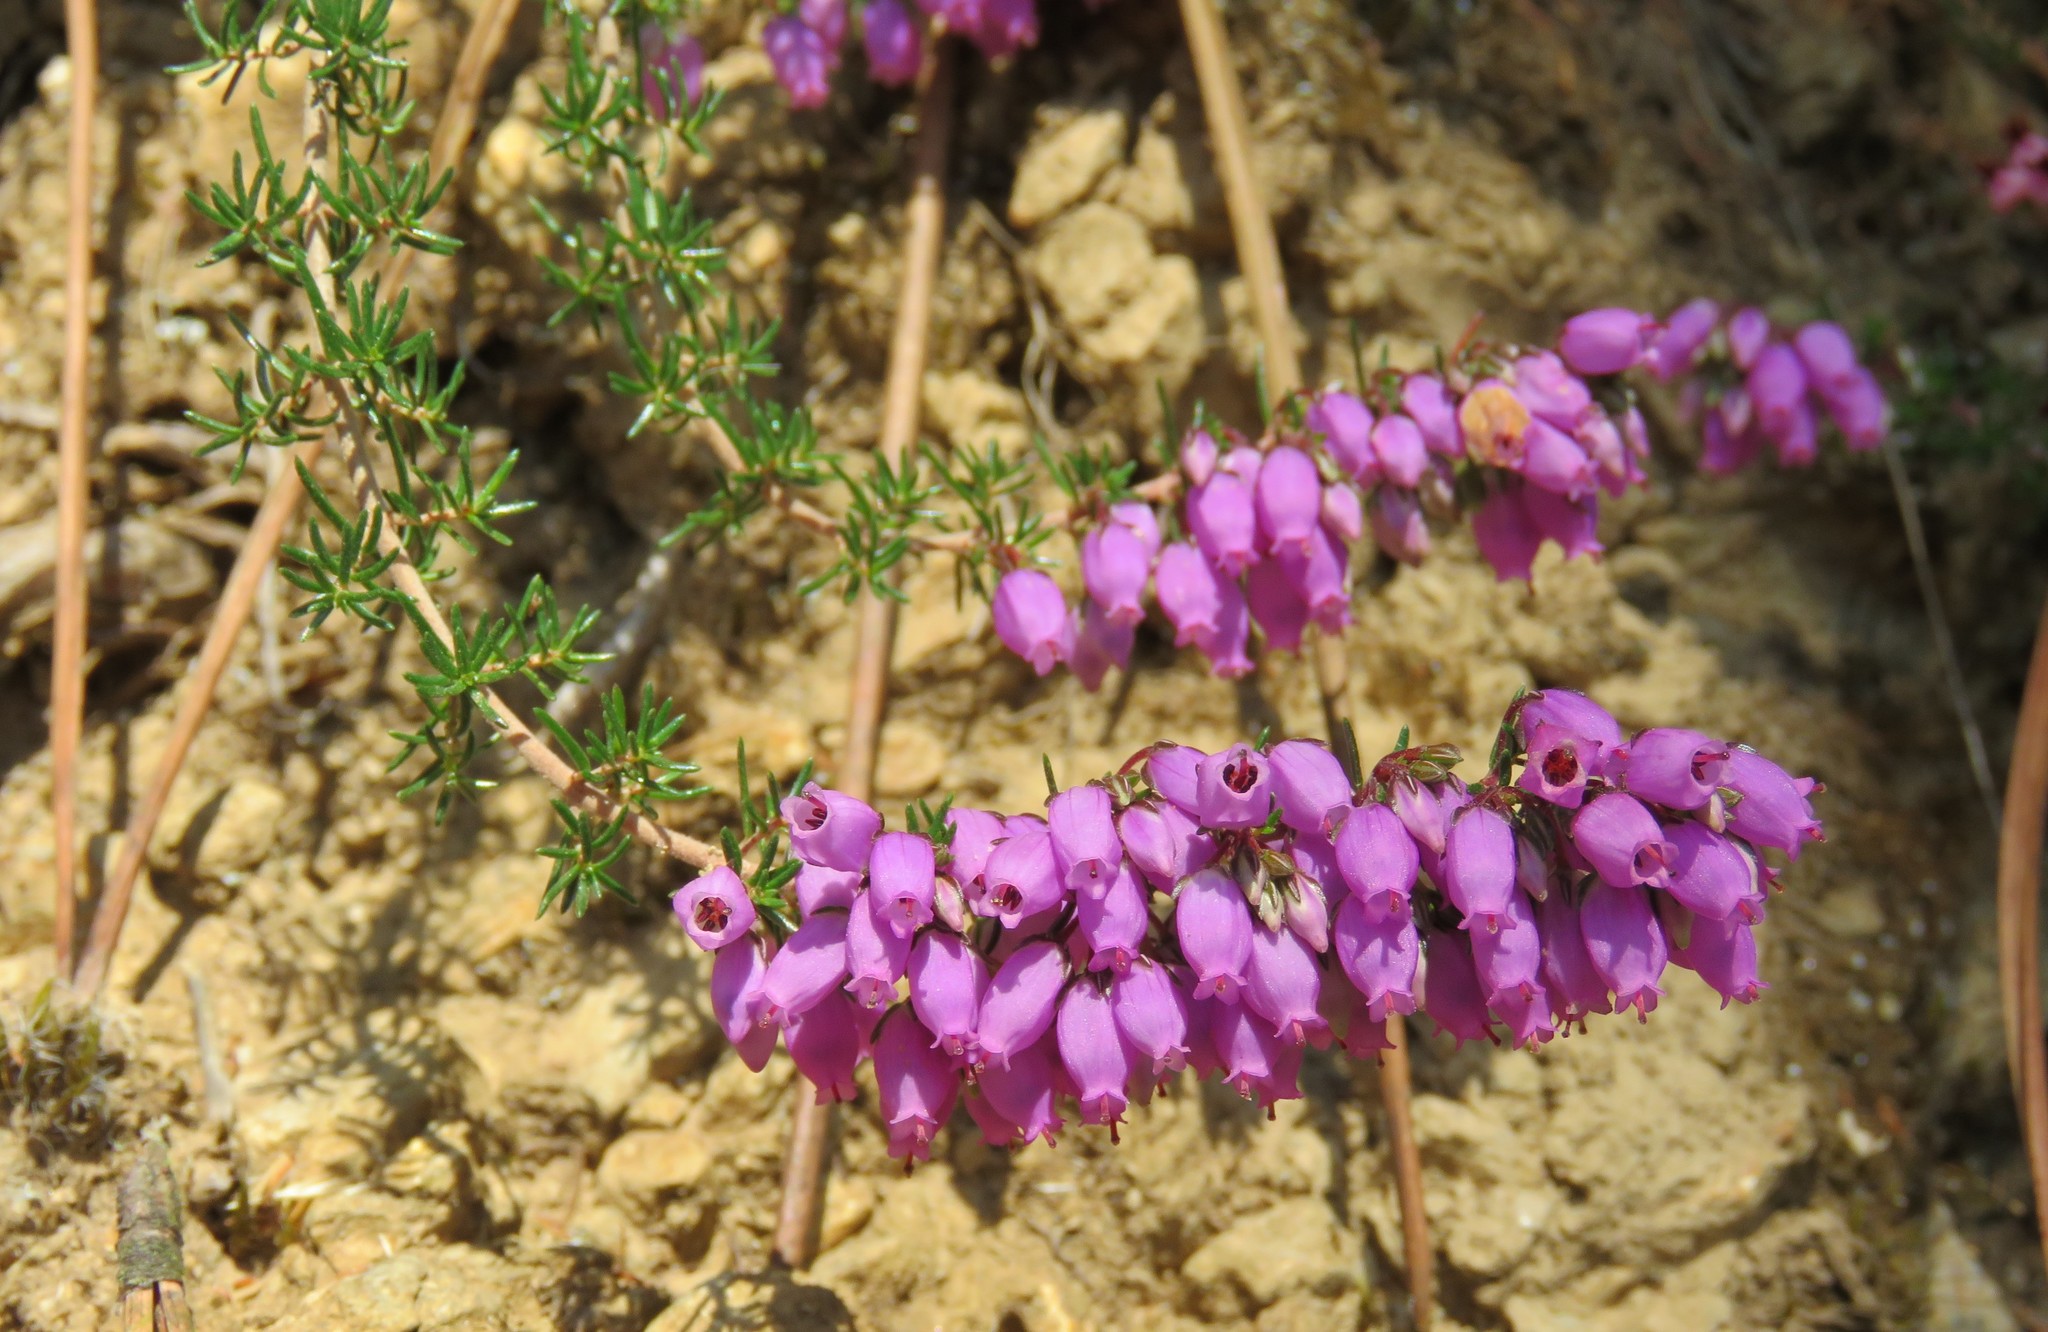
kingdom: Plantae
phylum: Tracheophyta
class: Magnoliopsida
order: Ericales
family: Ericaceae
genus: Erica
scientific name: Erica cinerea
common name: Bell heather
